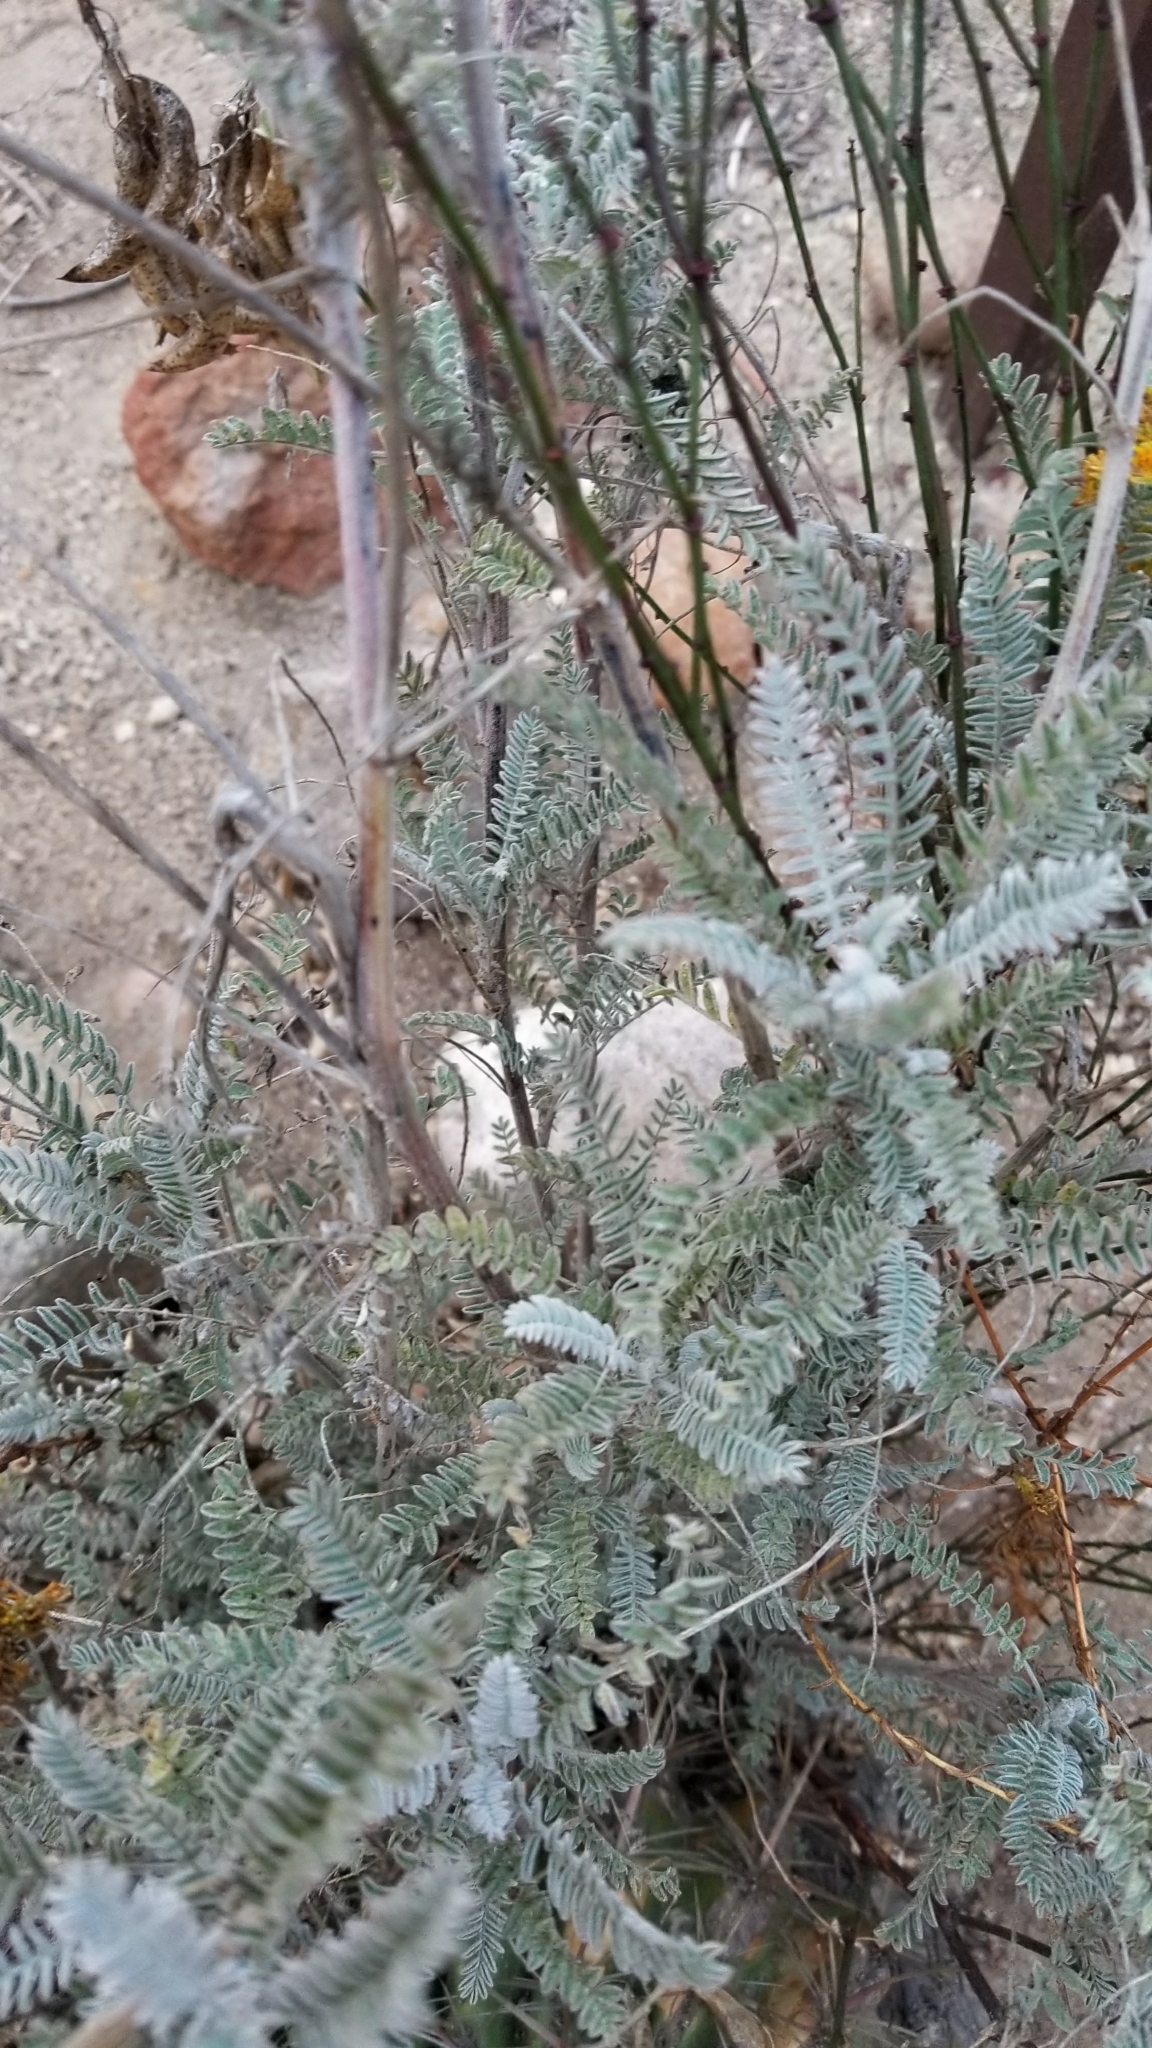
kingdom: Plantae
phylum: Tracheophyta
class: Magnoliopsida
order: Fabales
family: Fabaceae
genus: Astragalus
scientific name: Astragalus trichopodus
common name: Santa barbara milk-vetch
